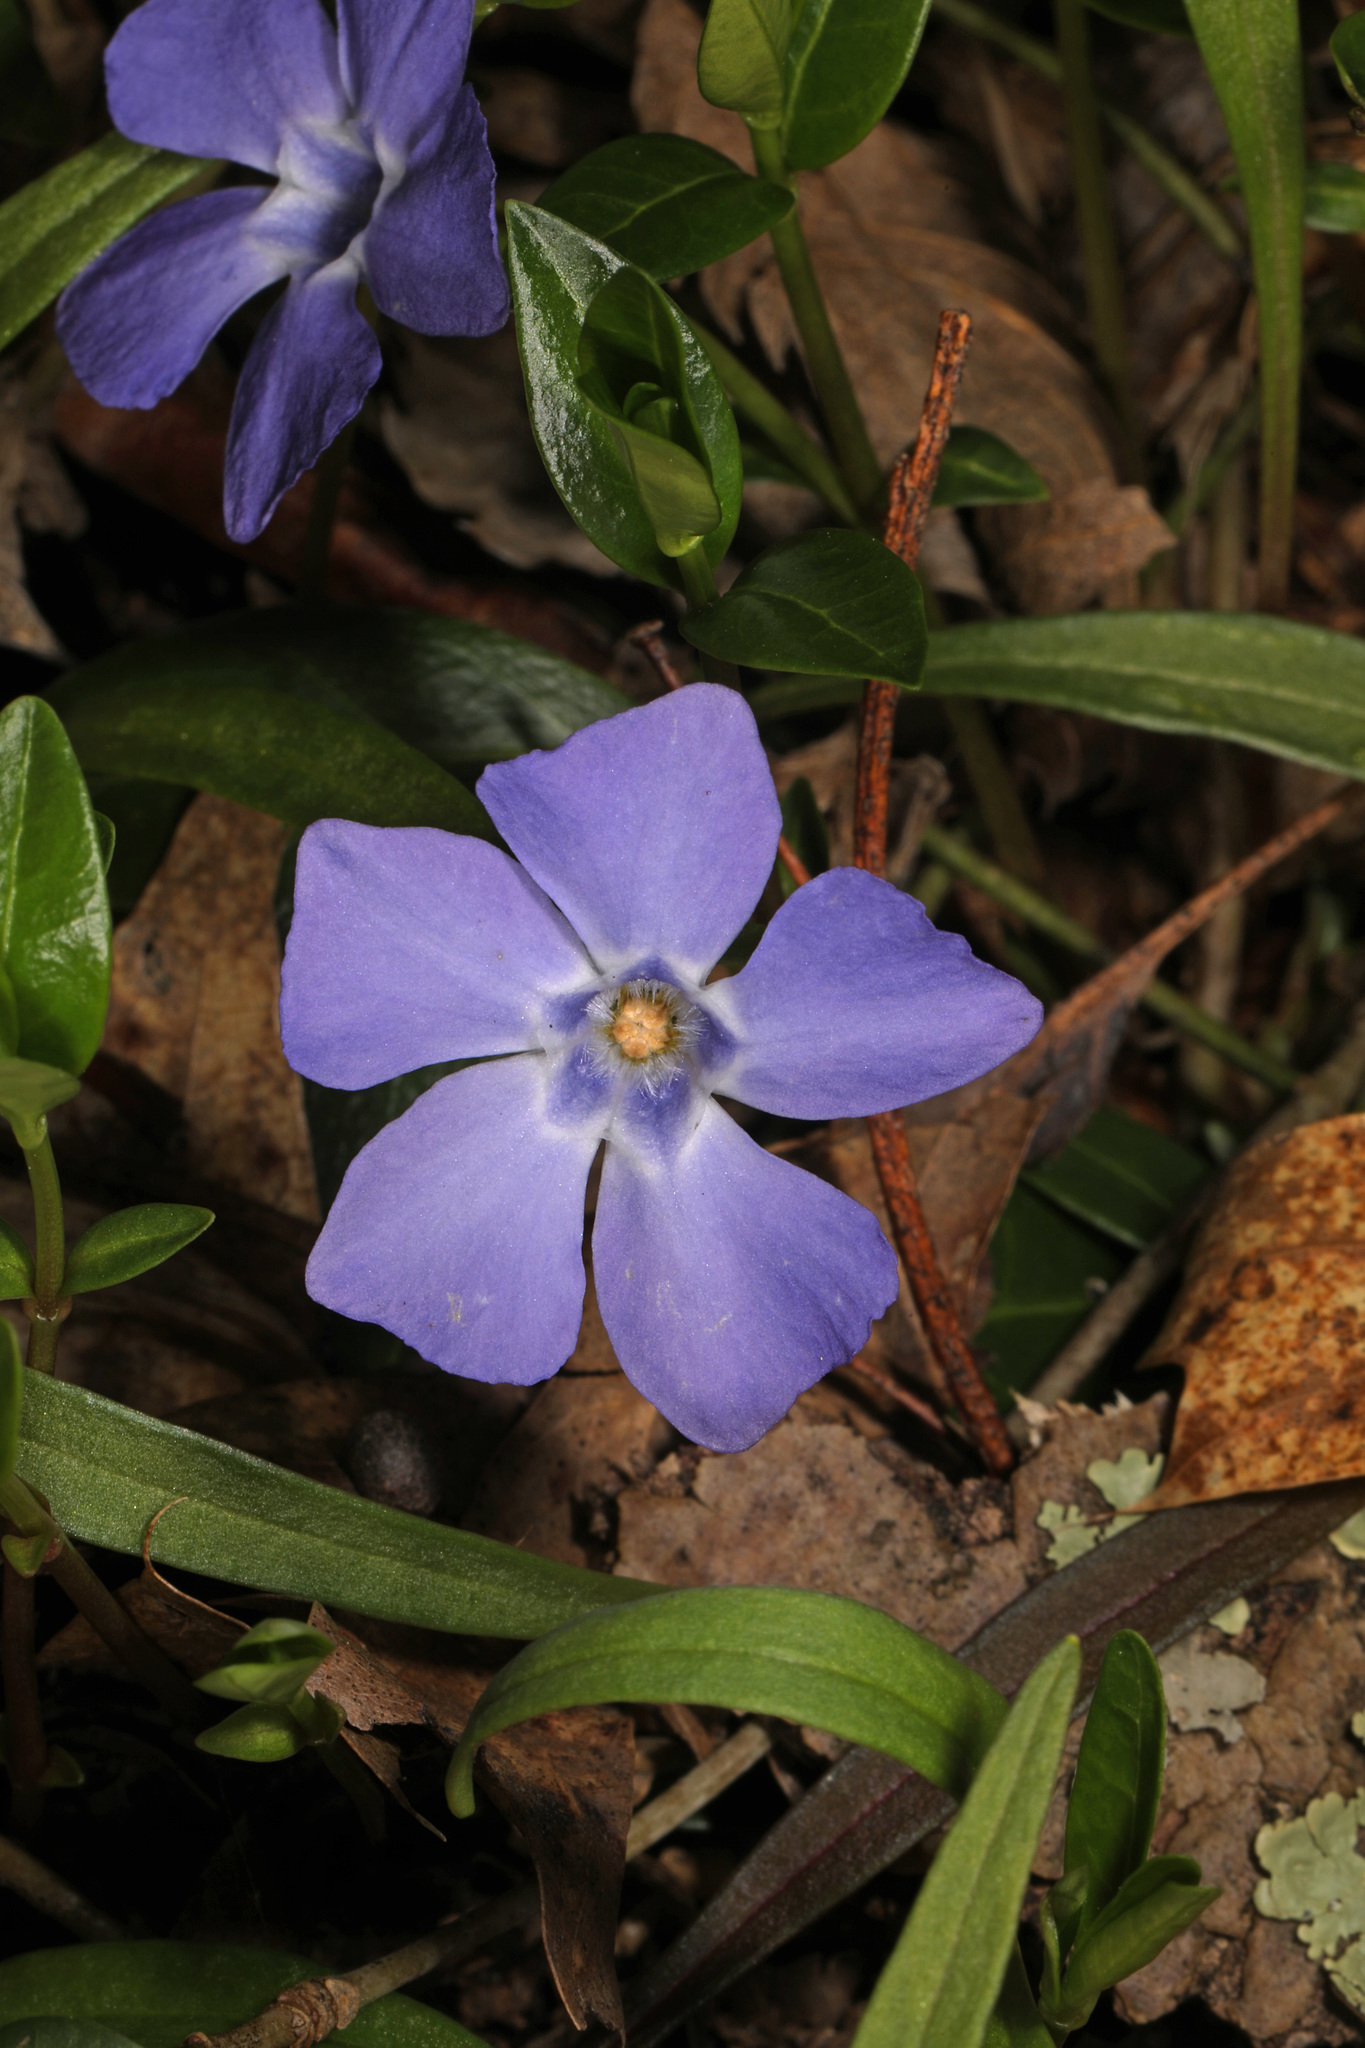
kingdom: Plantae
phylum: Tracheophyta
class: Magnoliopsida
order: Gentianales
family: Apocynaceae
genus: Vinca
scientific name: Vinca minor
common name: Lesser periwinkle
